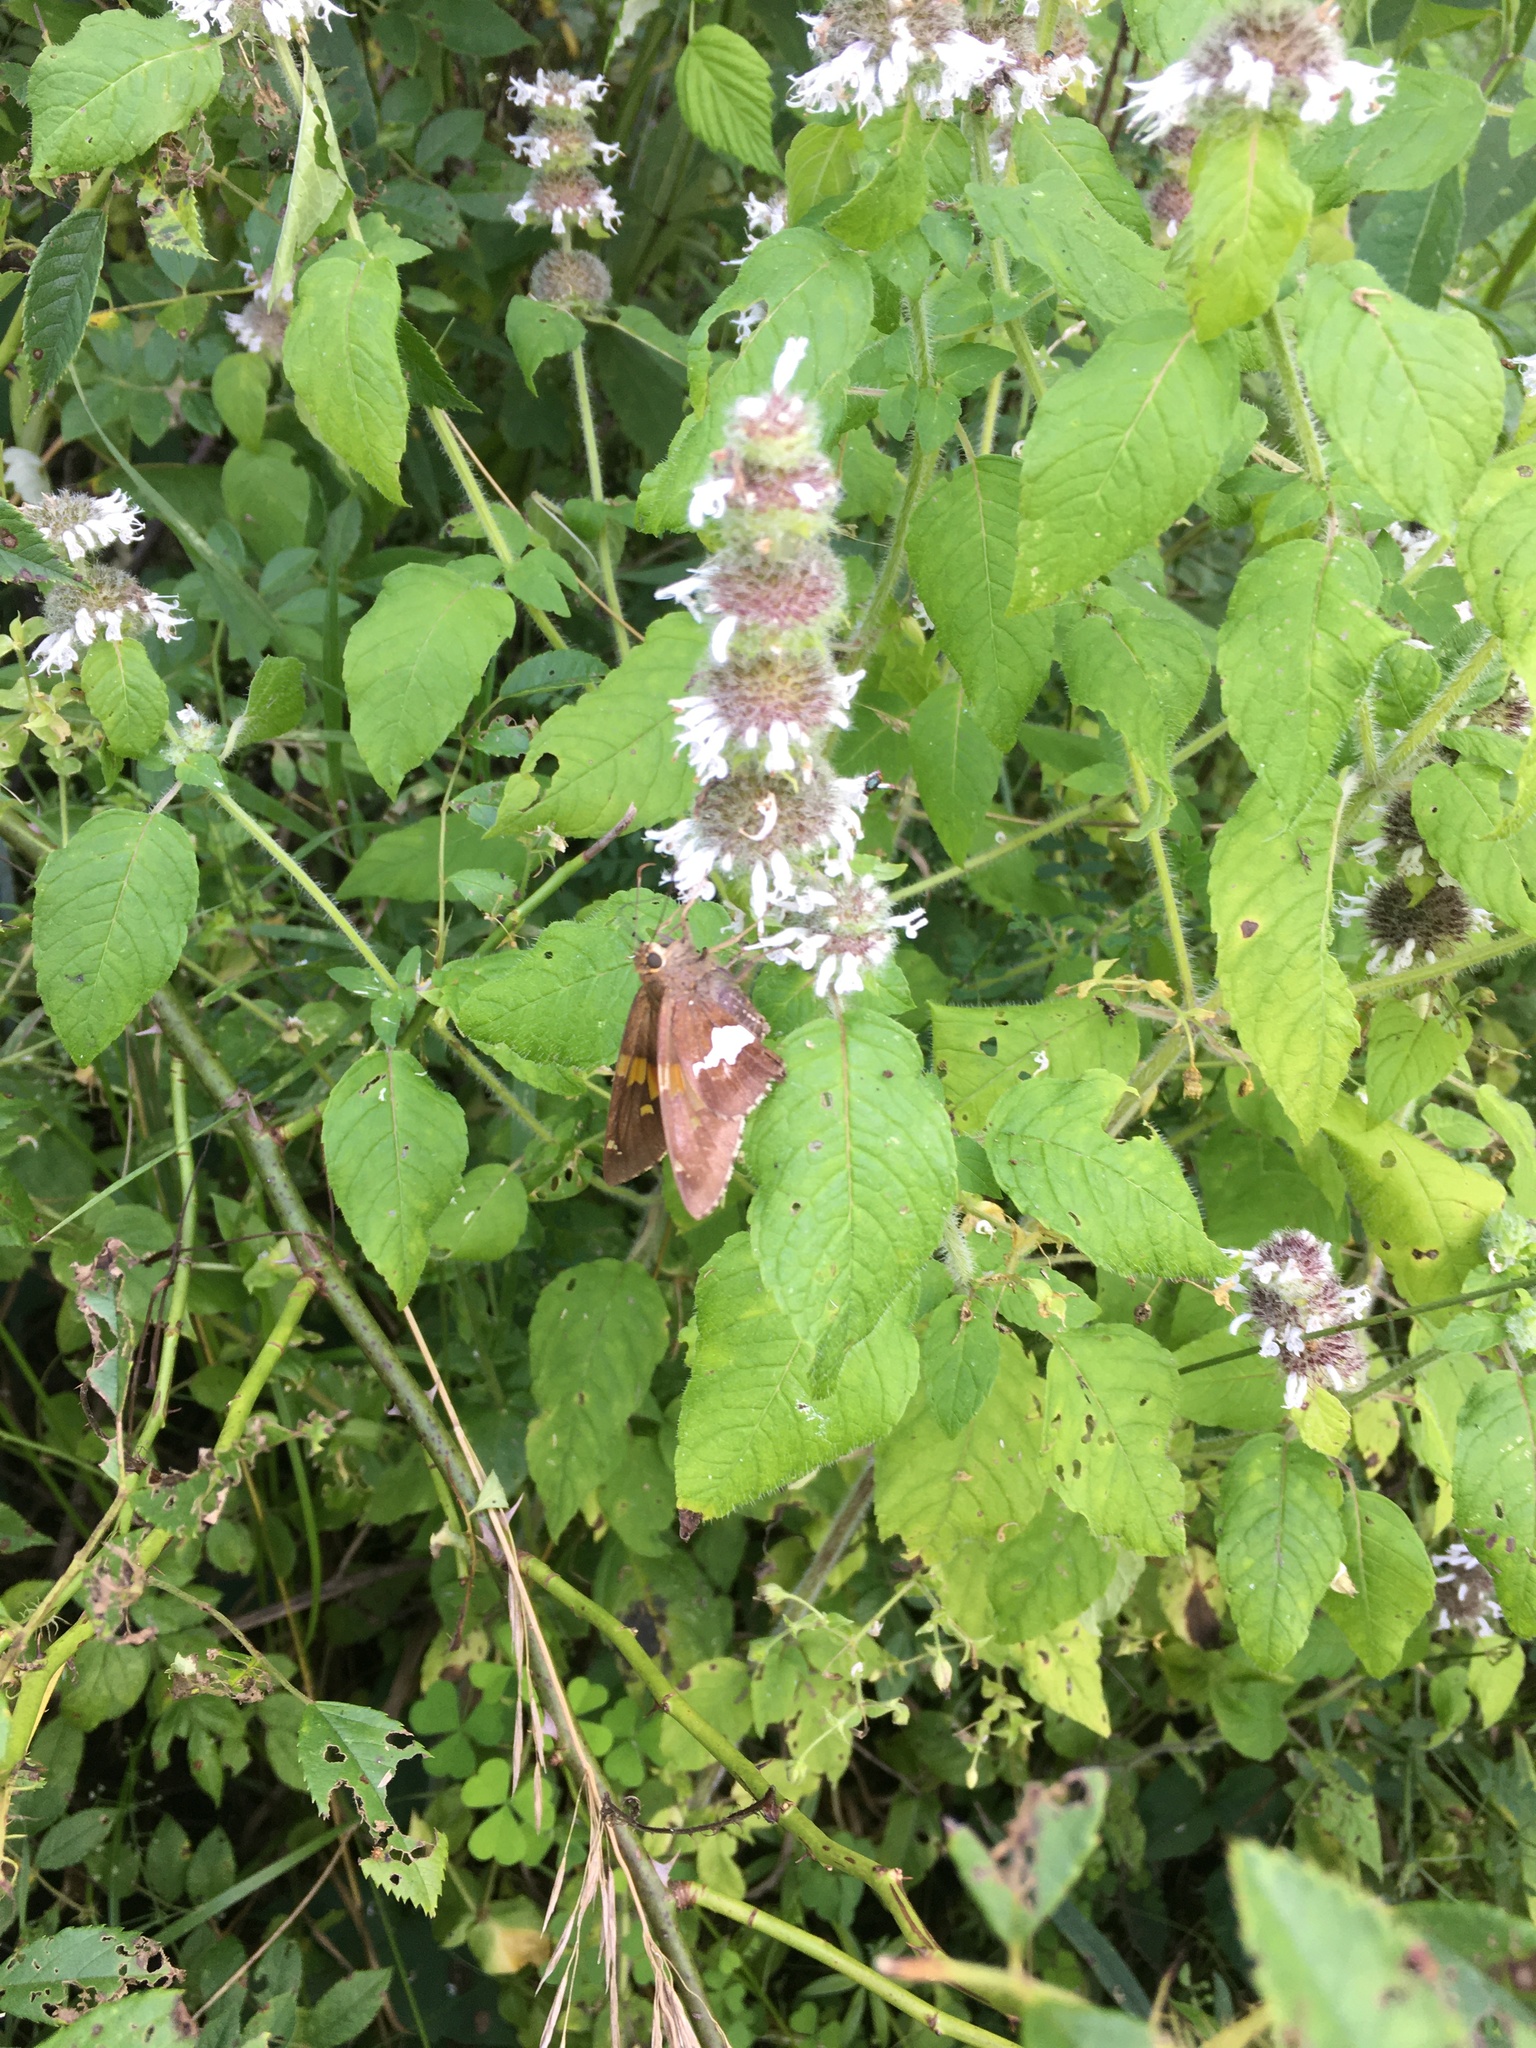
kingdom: Plantae
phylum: Tracheophyta
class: Magnoliopsida
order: Lamiales
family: Lamiaceae
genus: Blephilia
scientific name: Blephilia hirsuta
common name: Hairy blephilia
